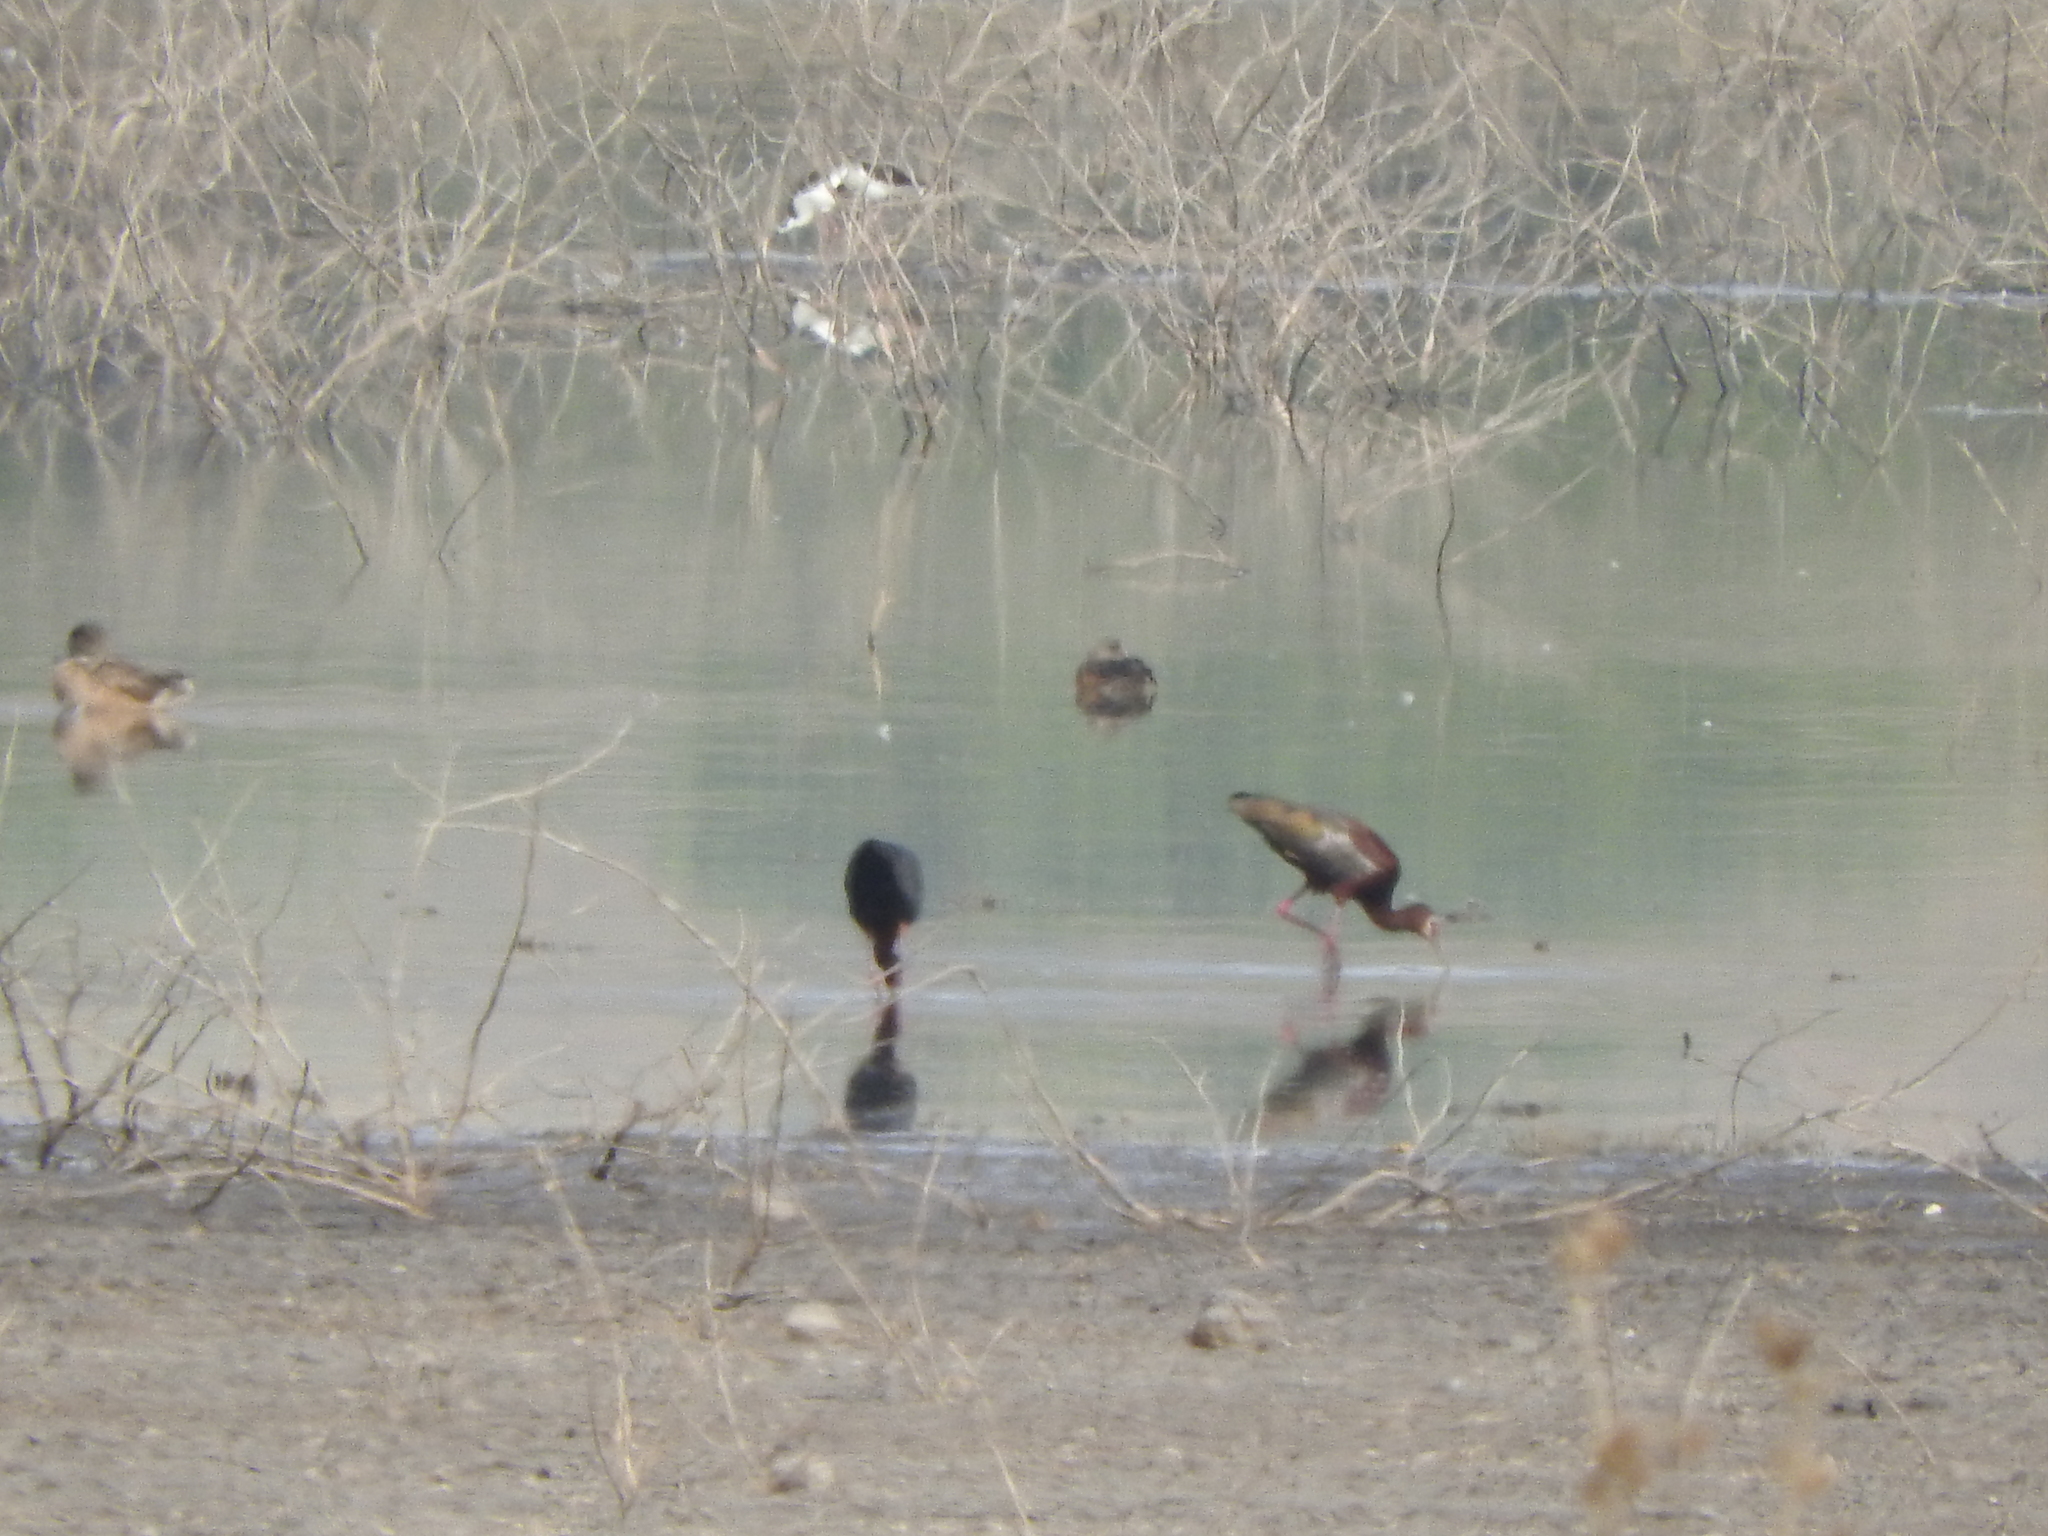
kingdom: Animalia
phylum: Chordata
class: Aves
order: Pelecaniformes
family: Threskiornithidae
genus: Plegadis
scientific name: Plegadis chihi
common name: White-faced ibis
